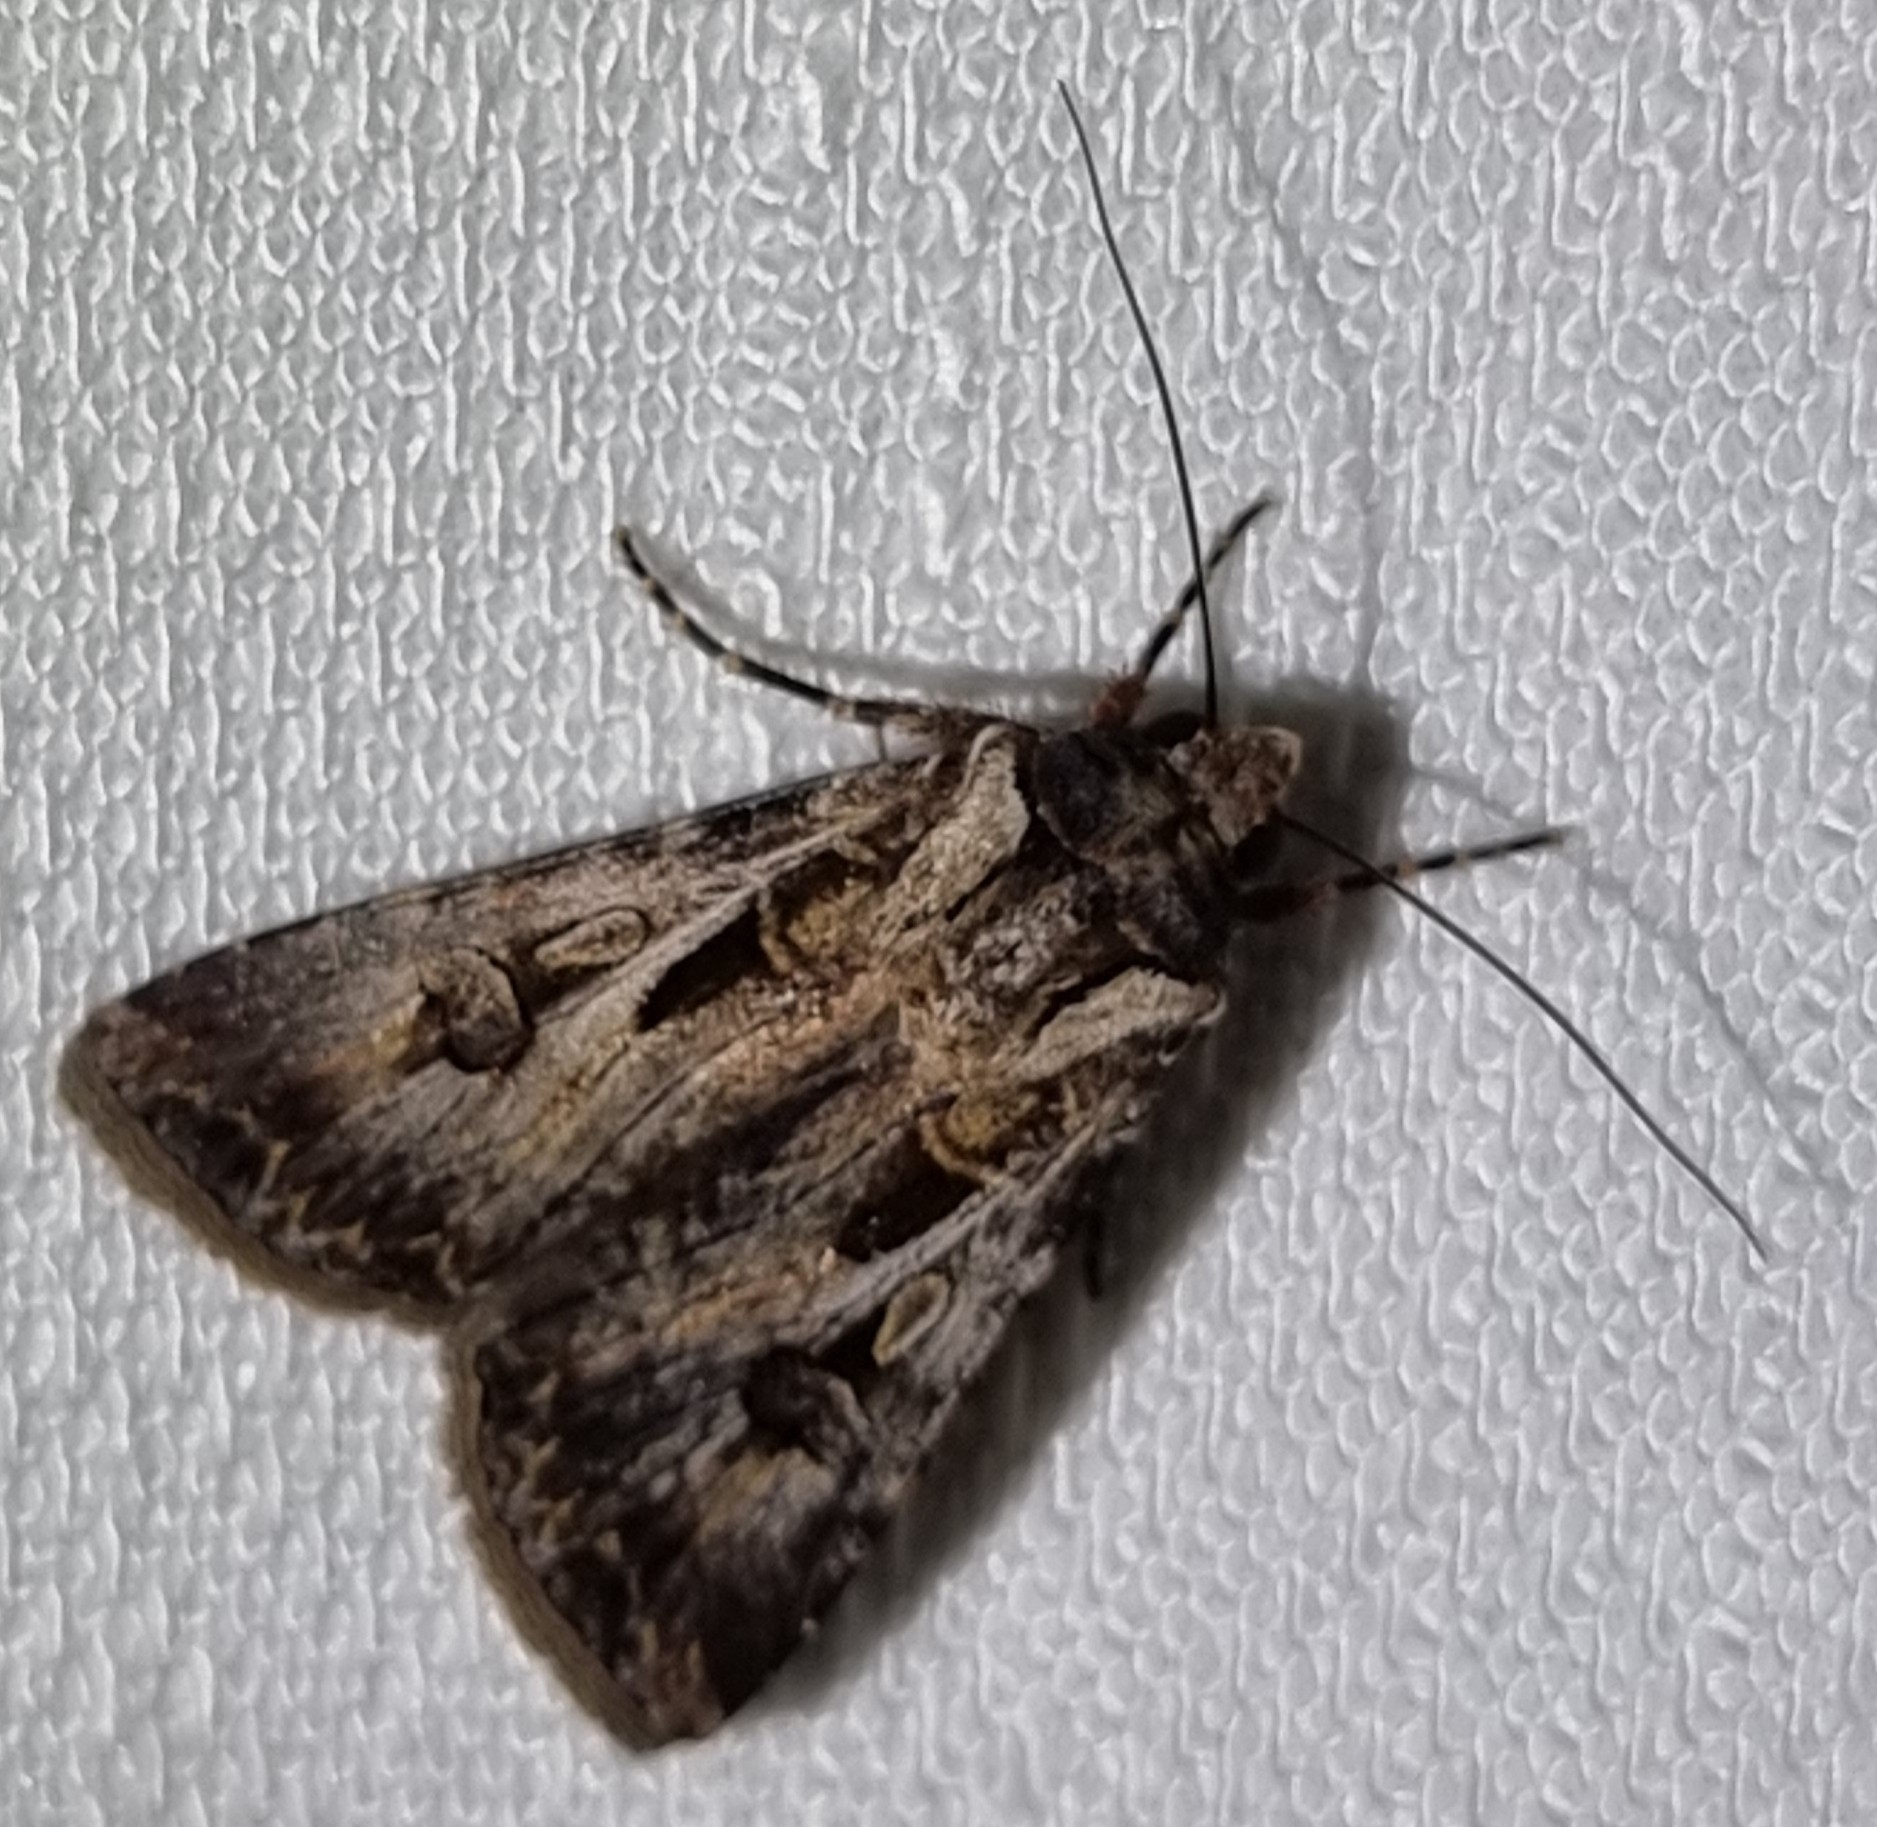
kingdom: Animalia
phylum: Arthropoda
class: Insecta
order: Lepidoptera
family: Noctuidae
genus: Agrotis
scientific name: Agrotis munda
